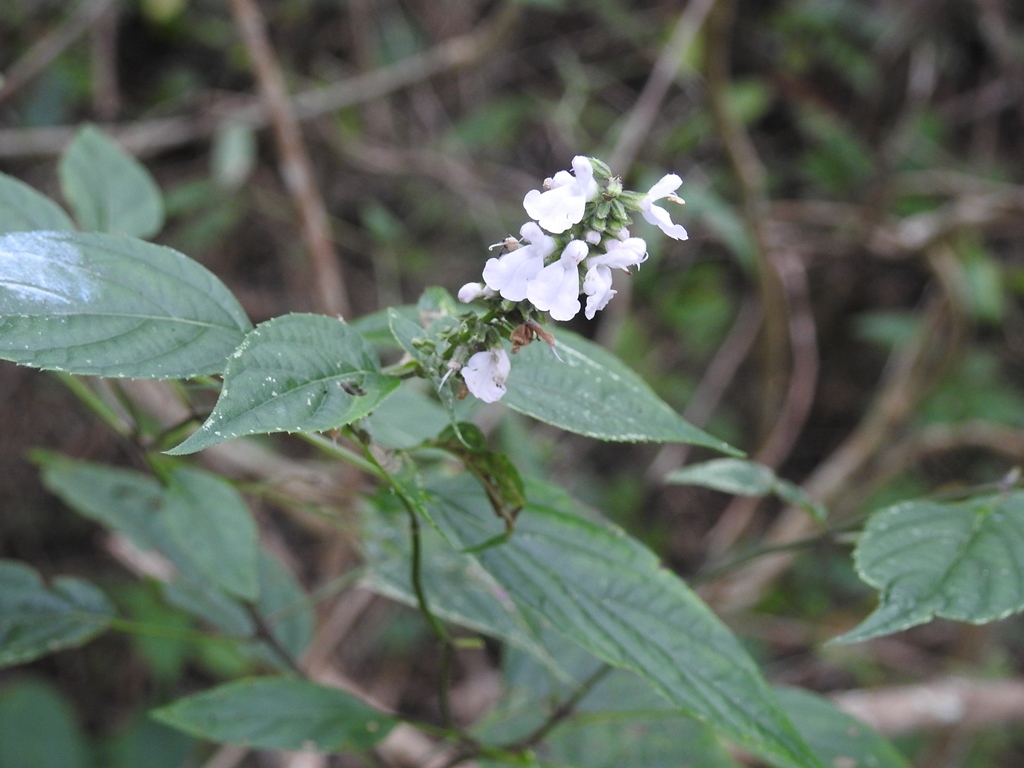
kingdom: Plantae
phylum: Tracheophyta
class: Magnoliopsida
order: Lamiales
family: Lamiaceae
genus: Salvia
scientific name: Salvia connivens
